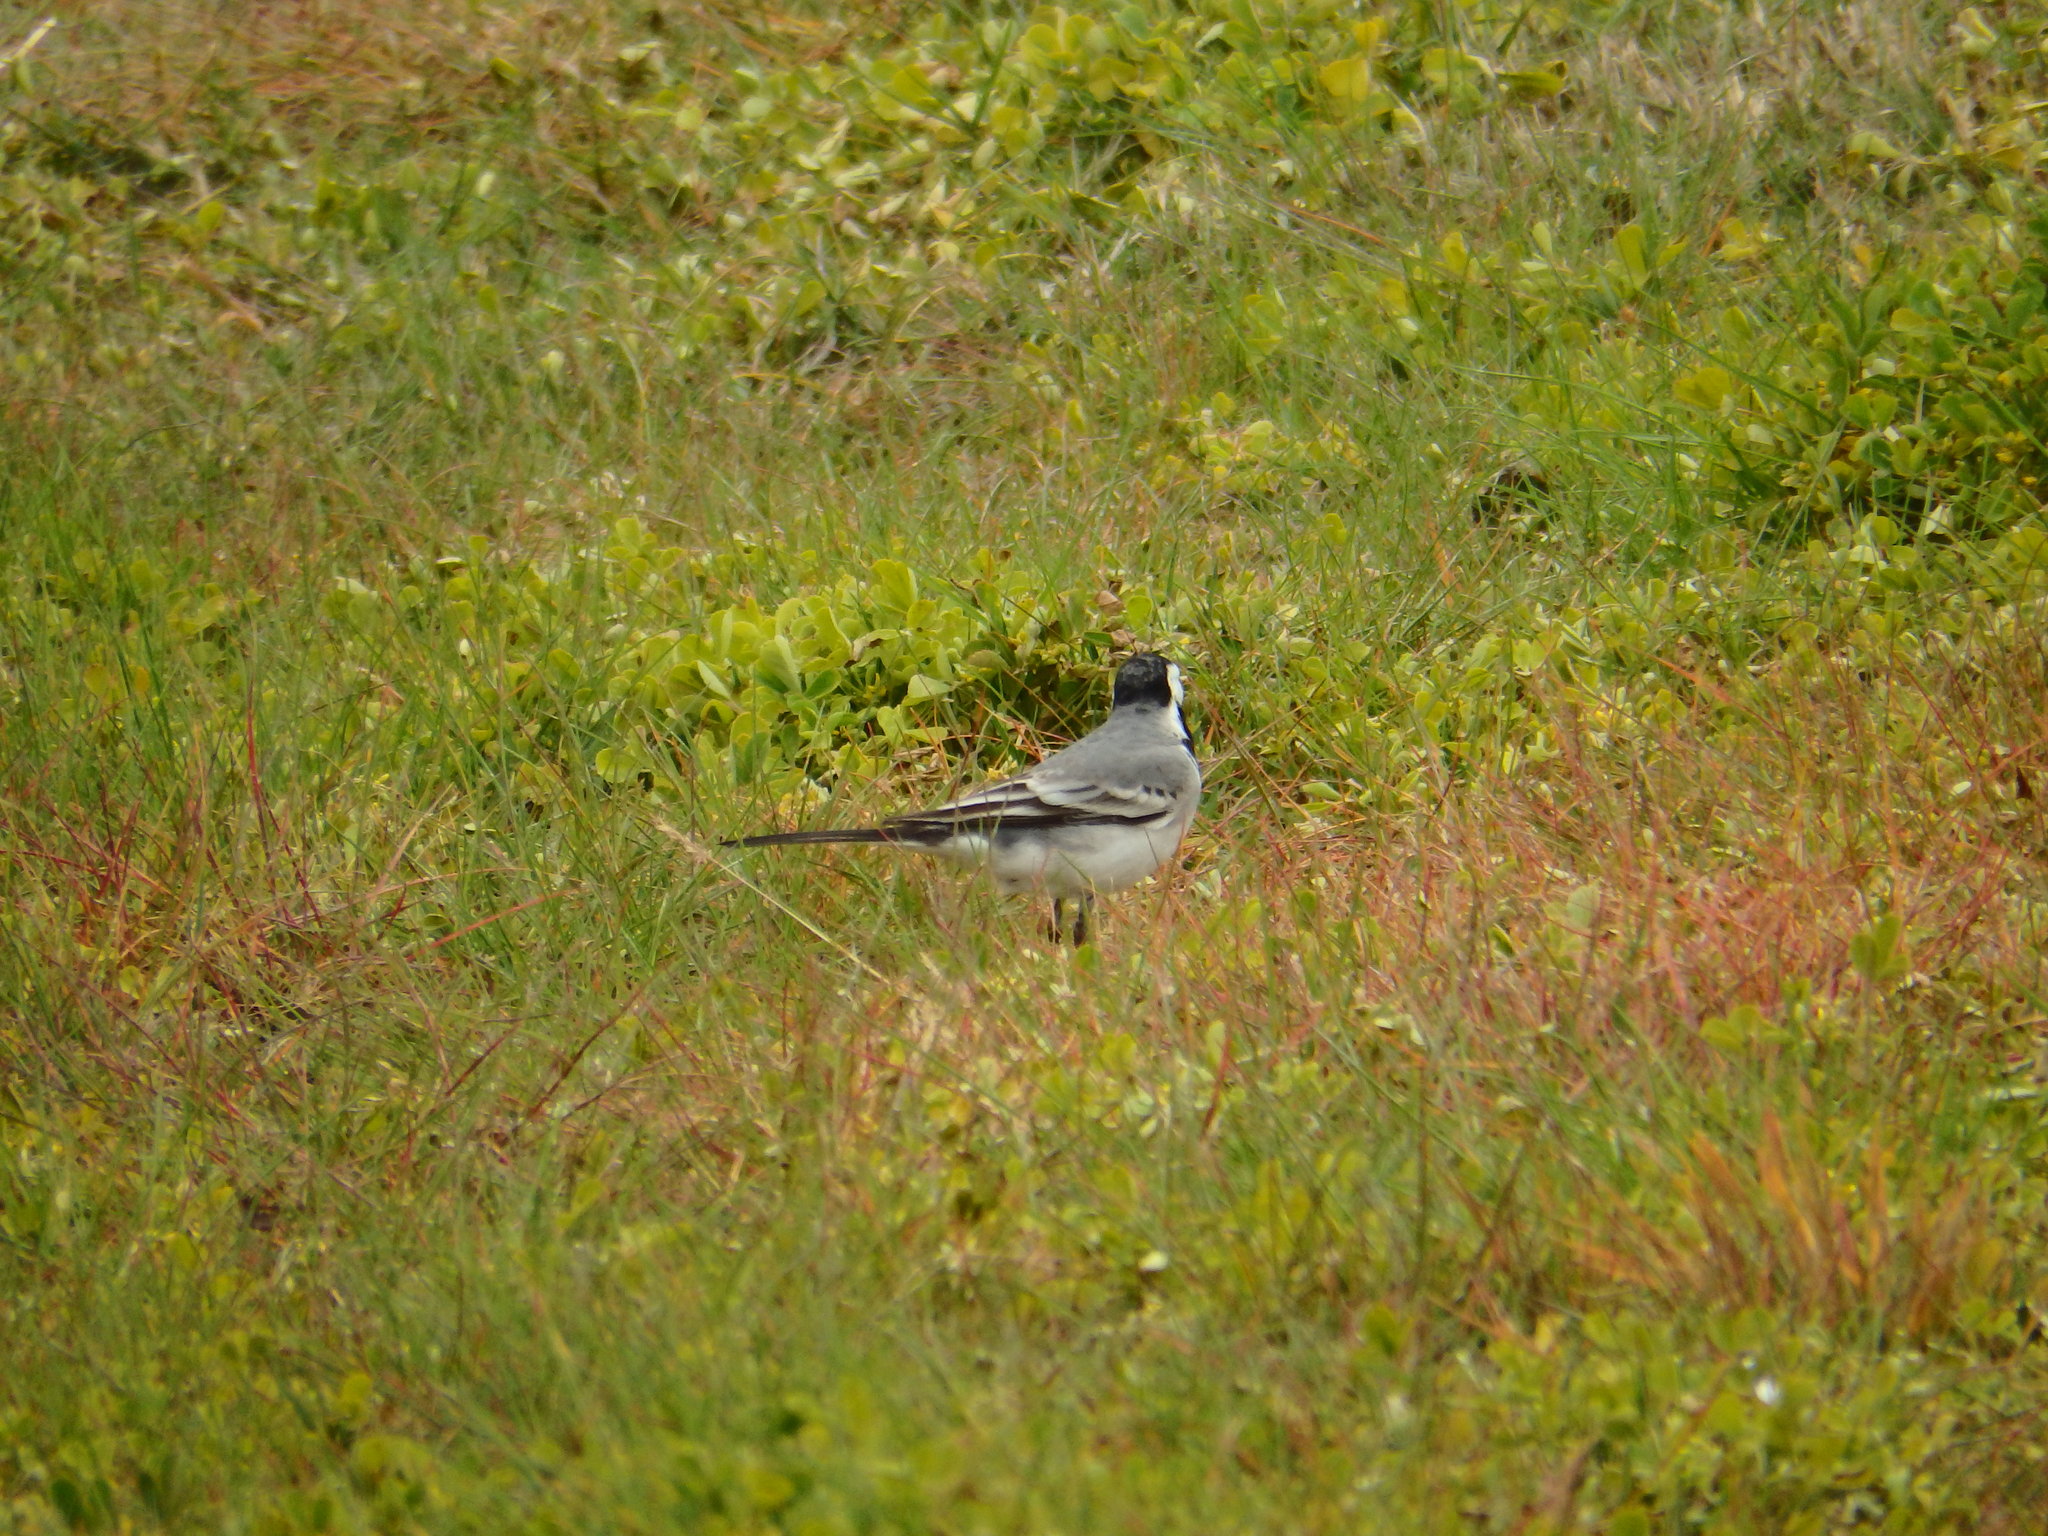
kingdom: Animalia
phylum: Chordata
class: Aves
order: Passeriformes
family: Motacillidae
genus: Motacilla
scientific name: Motacilla alba
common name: White wagtail
